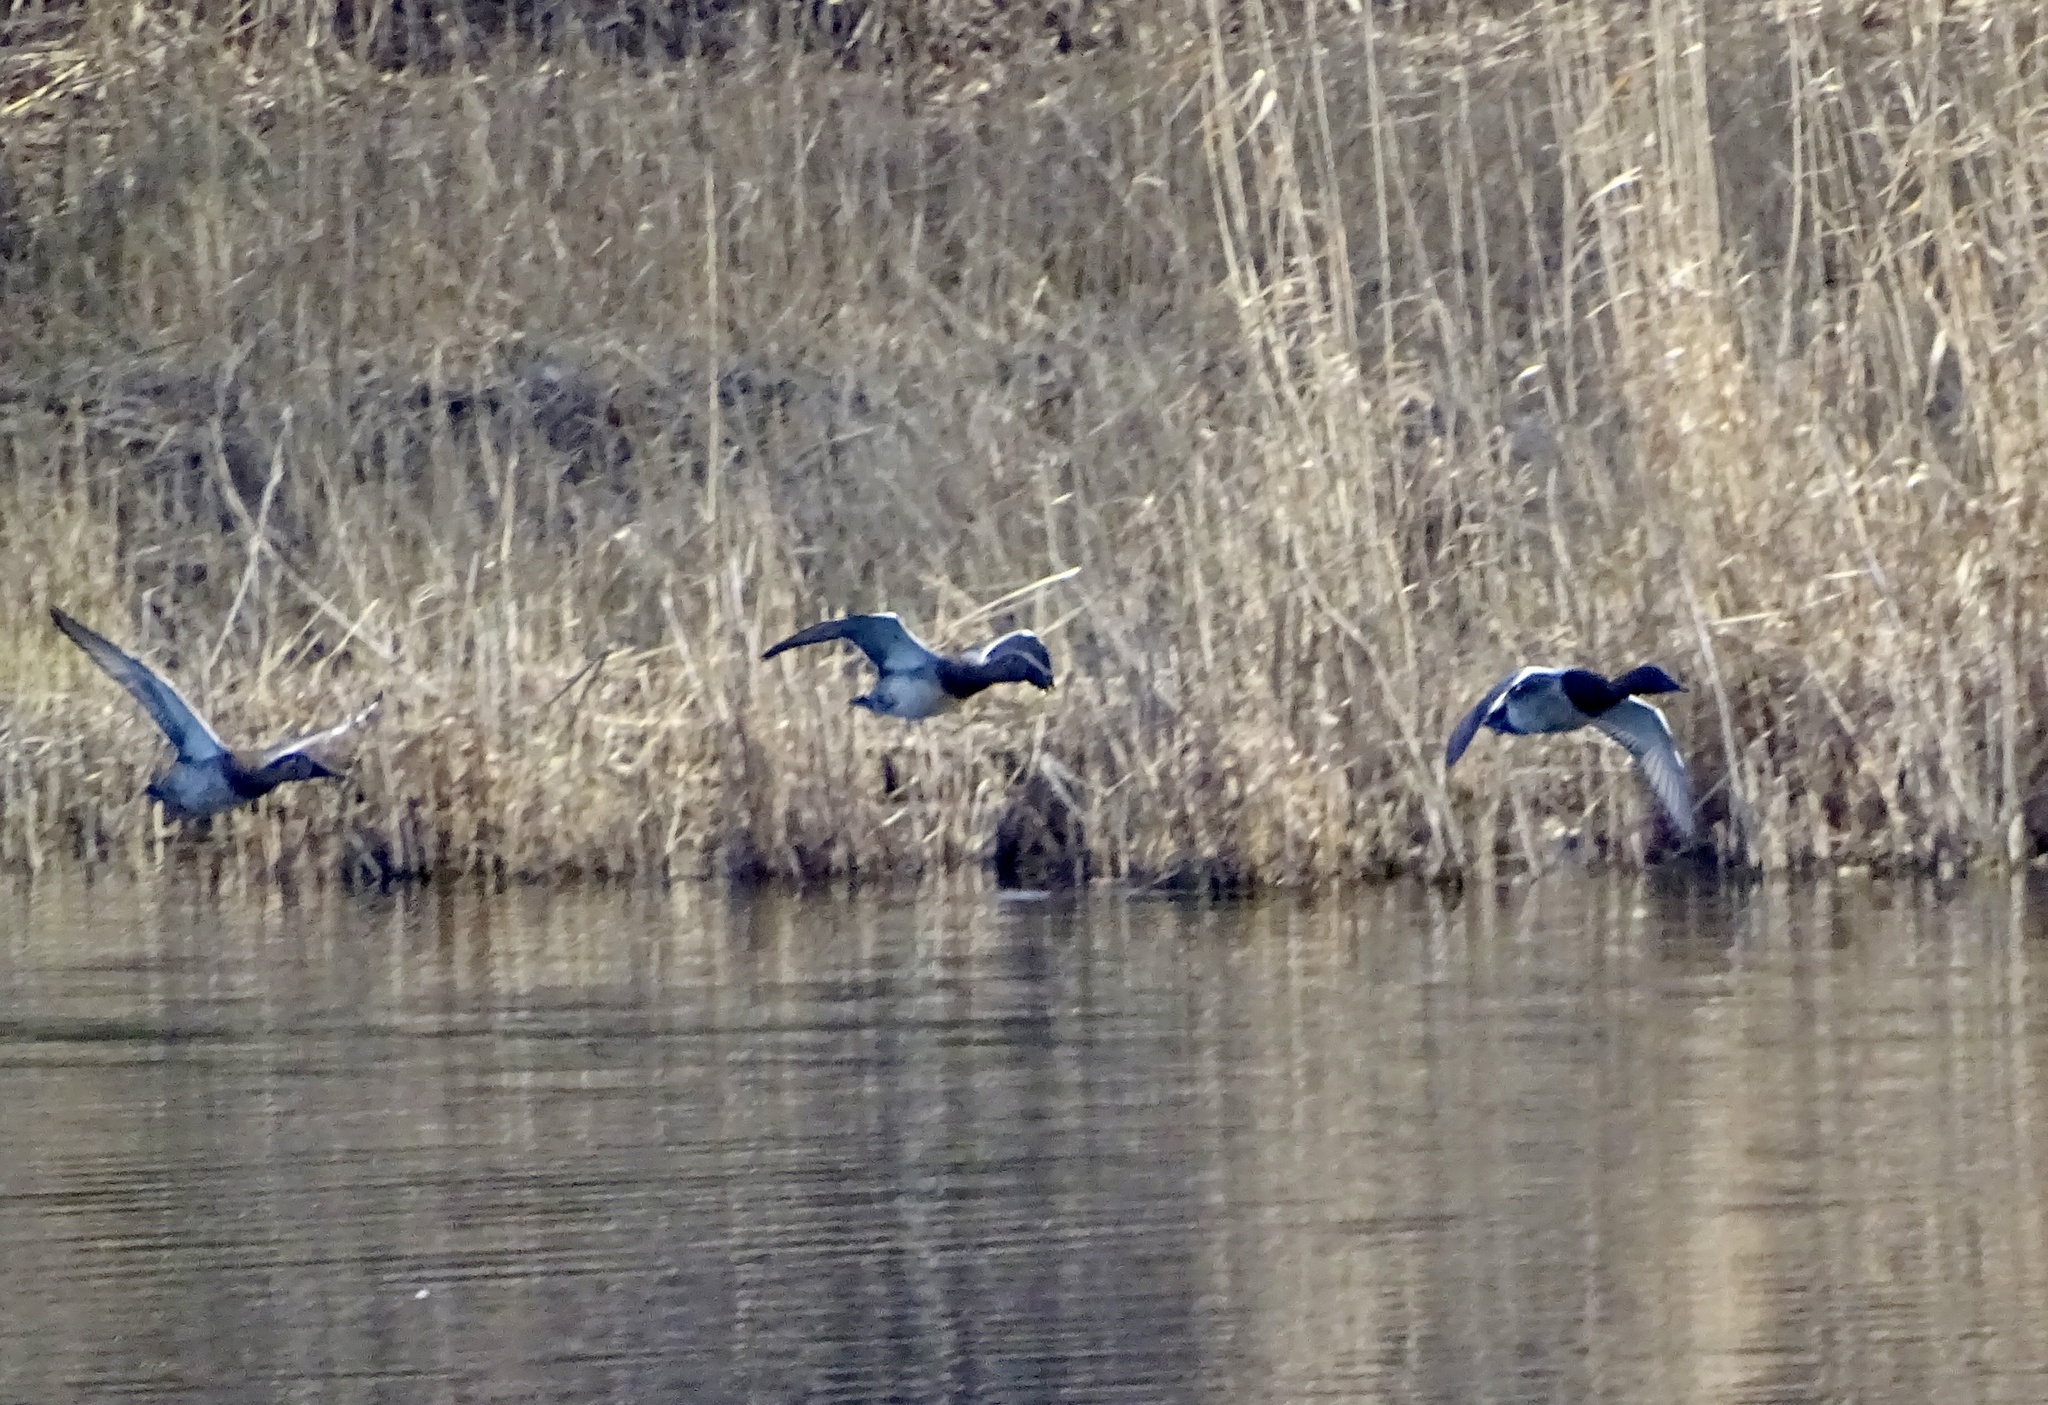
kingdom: Animalia
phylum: Chordata
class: Aves
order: Anseriformes
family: Anatidae
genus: Aythya
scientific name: Aythya valisineria
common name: Canvasback
